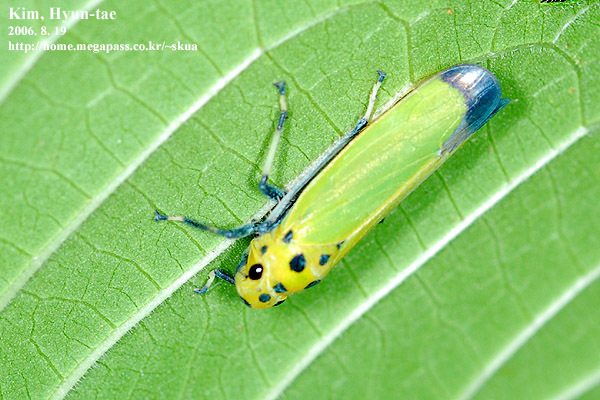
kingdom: Animalia
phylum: Arthropoda
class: Insecta
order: Hemiptera
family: Cicadellidae
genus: Bothrogonia
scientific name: Bothrogonia ferruginea
